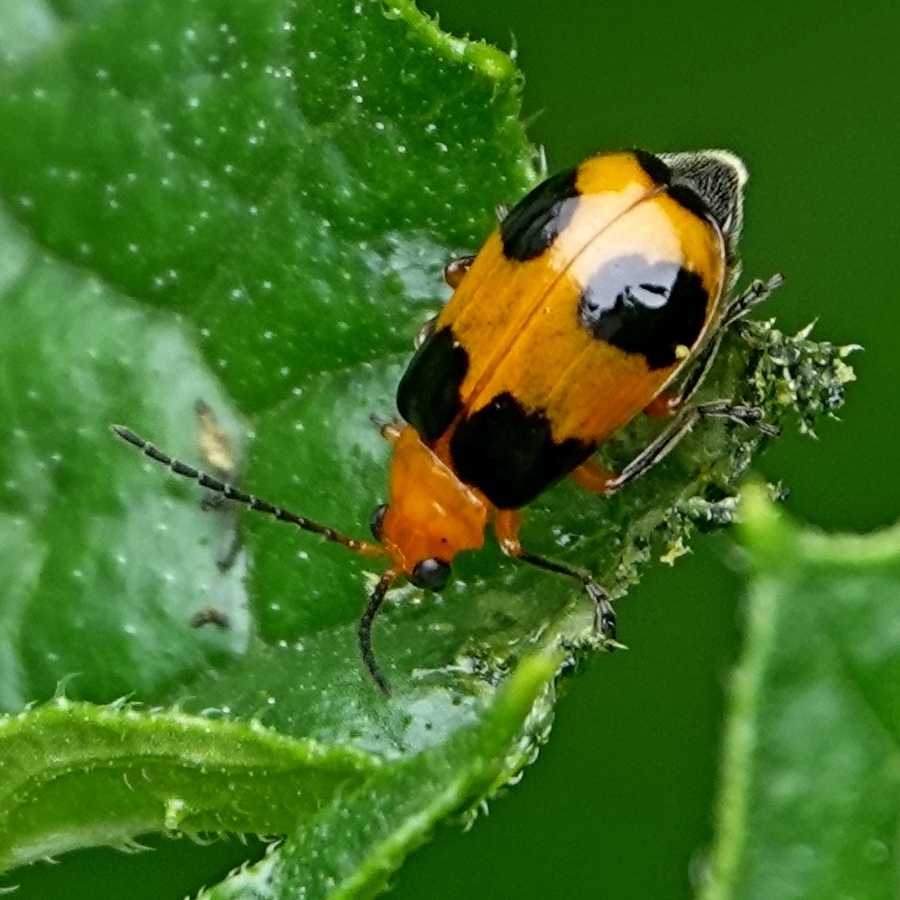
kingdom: Animalia
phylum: Arthropoda
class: Insecta
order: Coleoptera
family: Chrysomelidae
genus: Aulacophora
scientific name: Aulacophora
